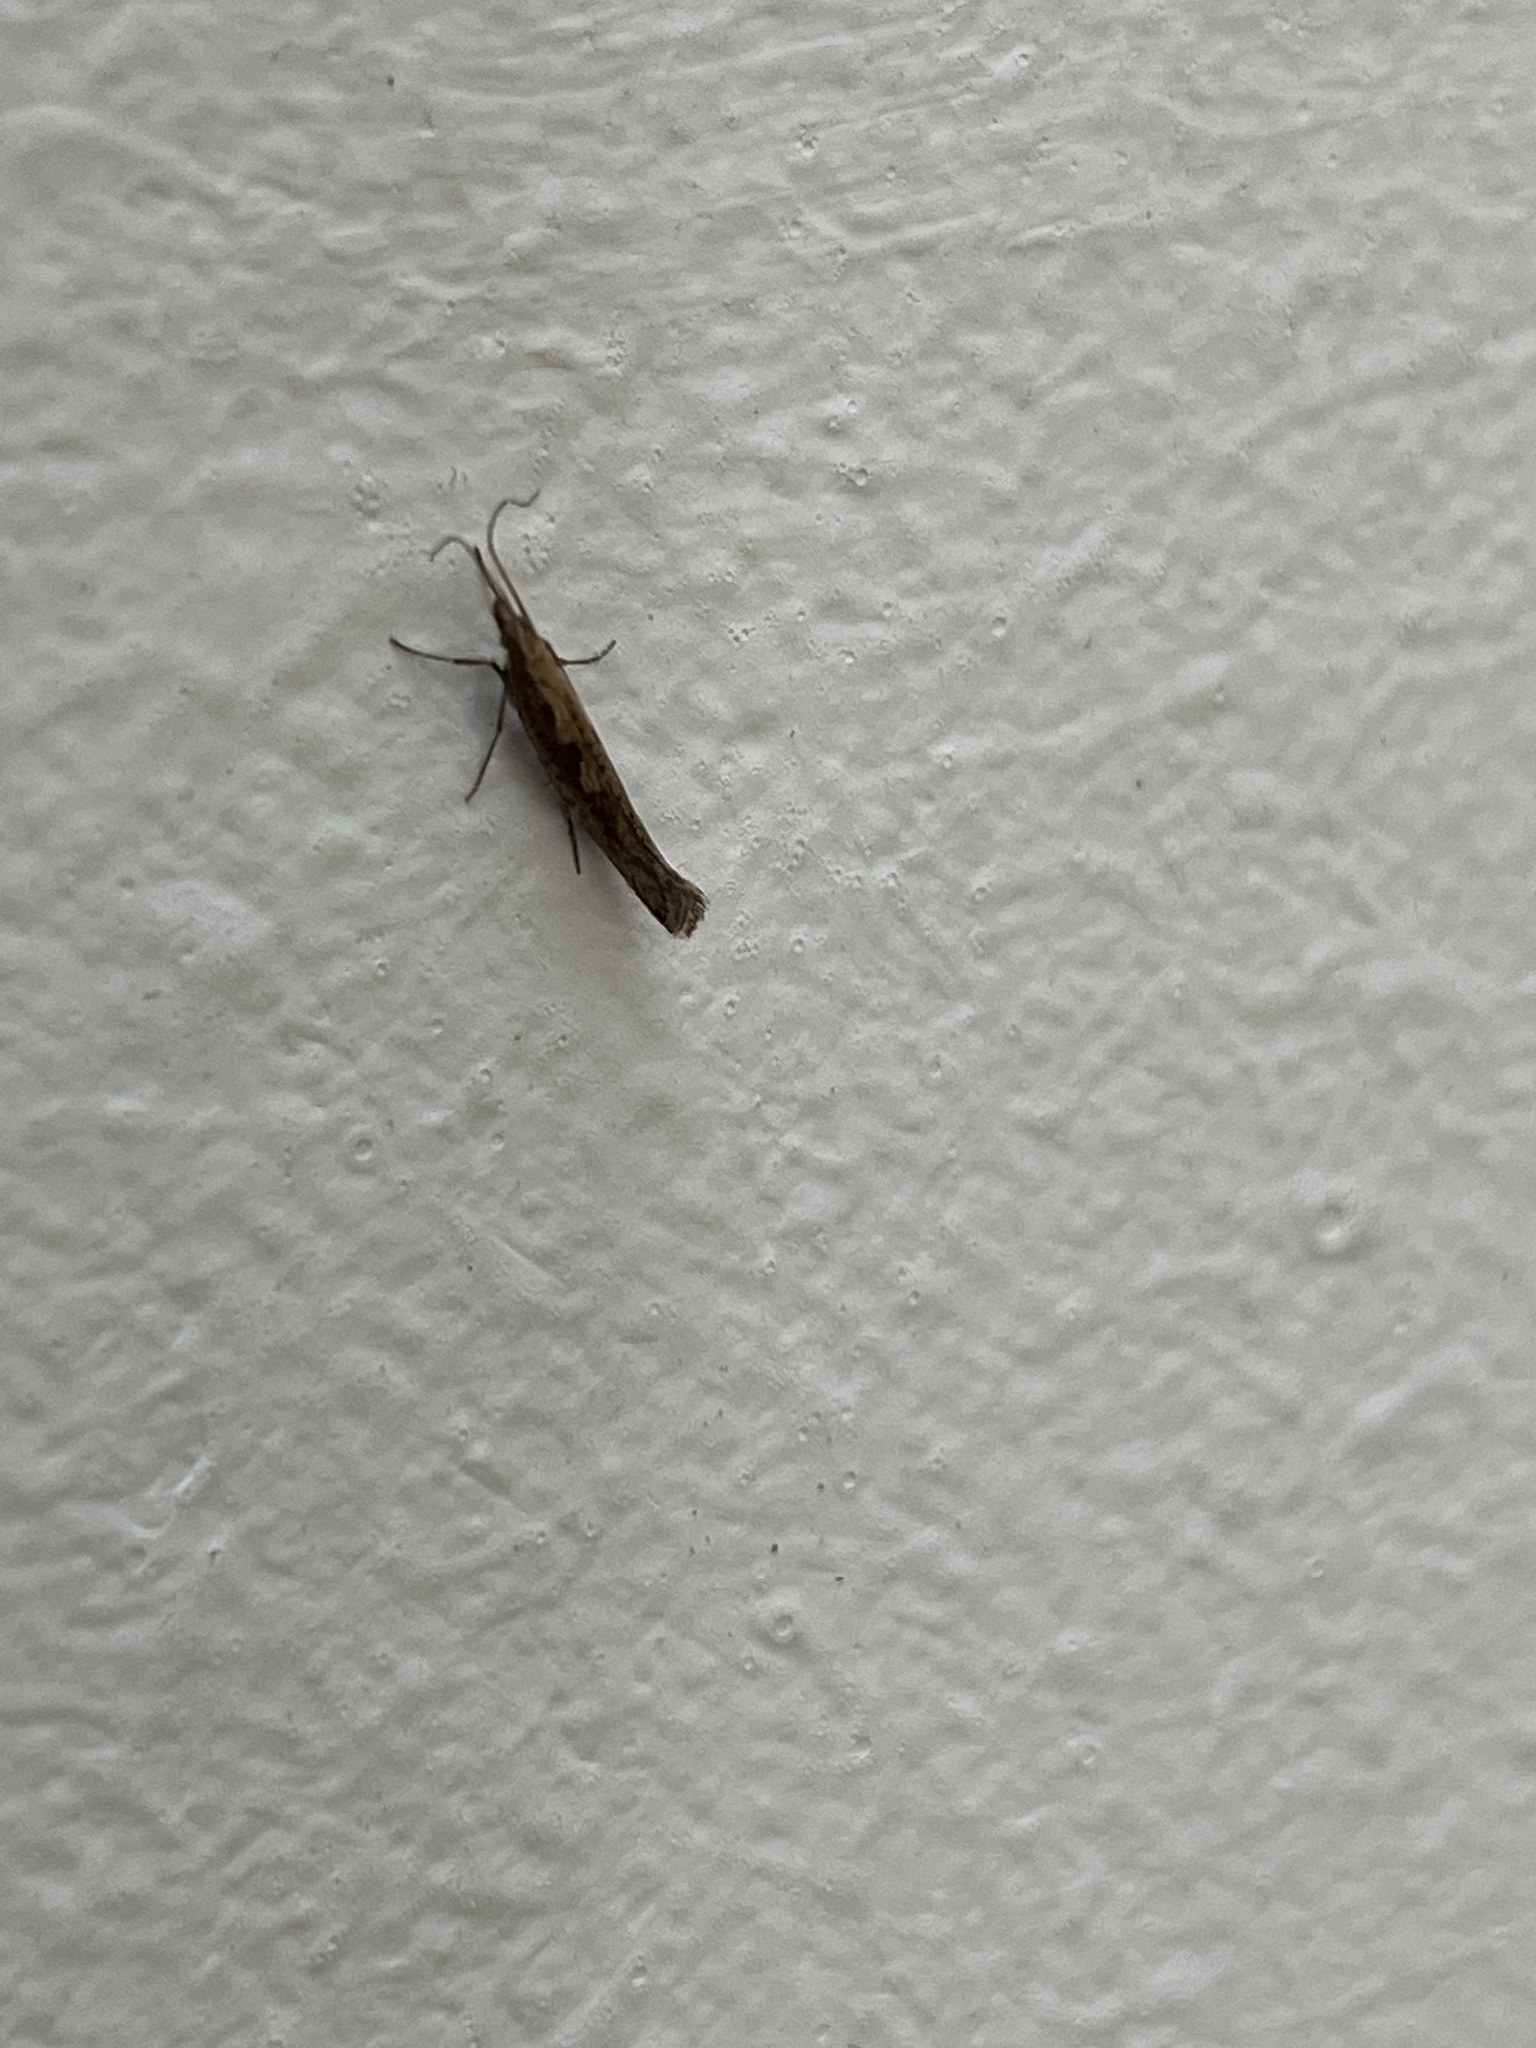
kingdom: Animalia
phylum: Arthropoda
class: Insecta
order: Lepidoptera
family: Plutellidae
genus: Plutella
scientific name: Plutella xylostella
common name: Diamond-back moth
